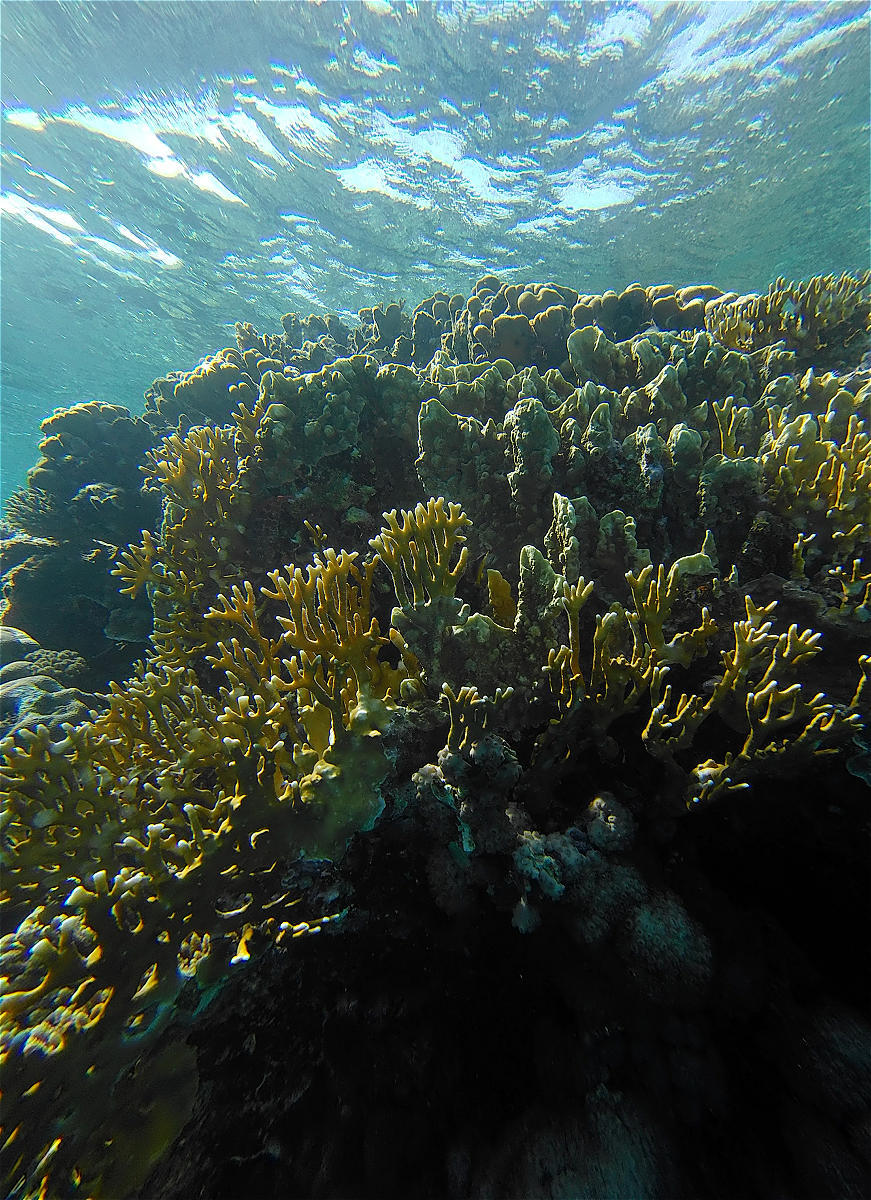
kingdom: Animalia
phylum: Cnidaria
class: Hydrozoa
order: Anthoathecata
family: Milleporidae
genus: Millepora
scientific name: Millepora dichotoma
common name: Ramified fire coral
